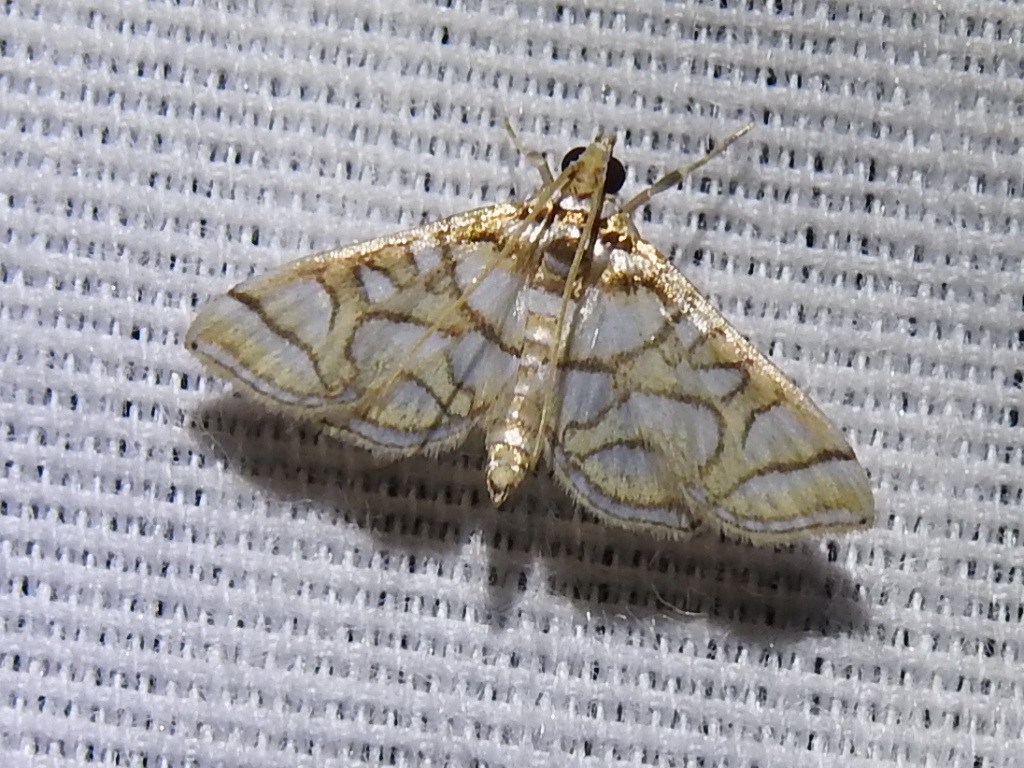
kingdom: Animalia
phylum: Arthropoda
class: Insecta
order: Lepidoptera
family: Crambidae
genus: Pseudopyrausta
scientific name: Pseudopyrausta santatalis
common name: Moth
